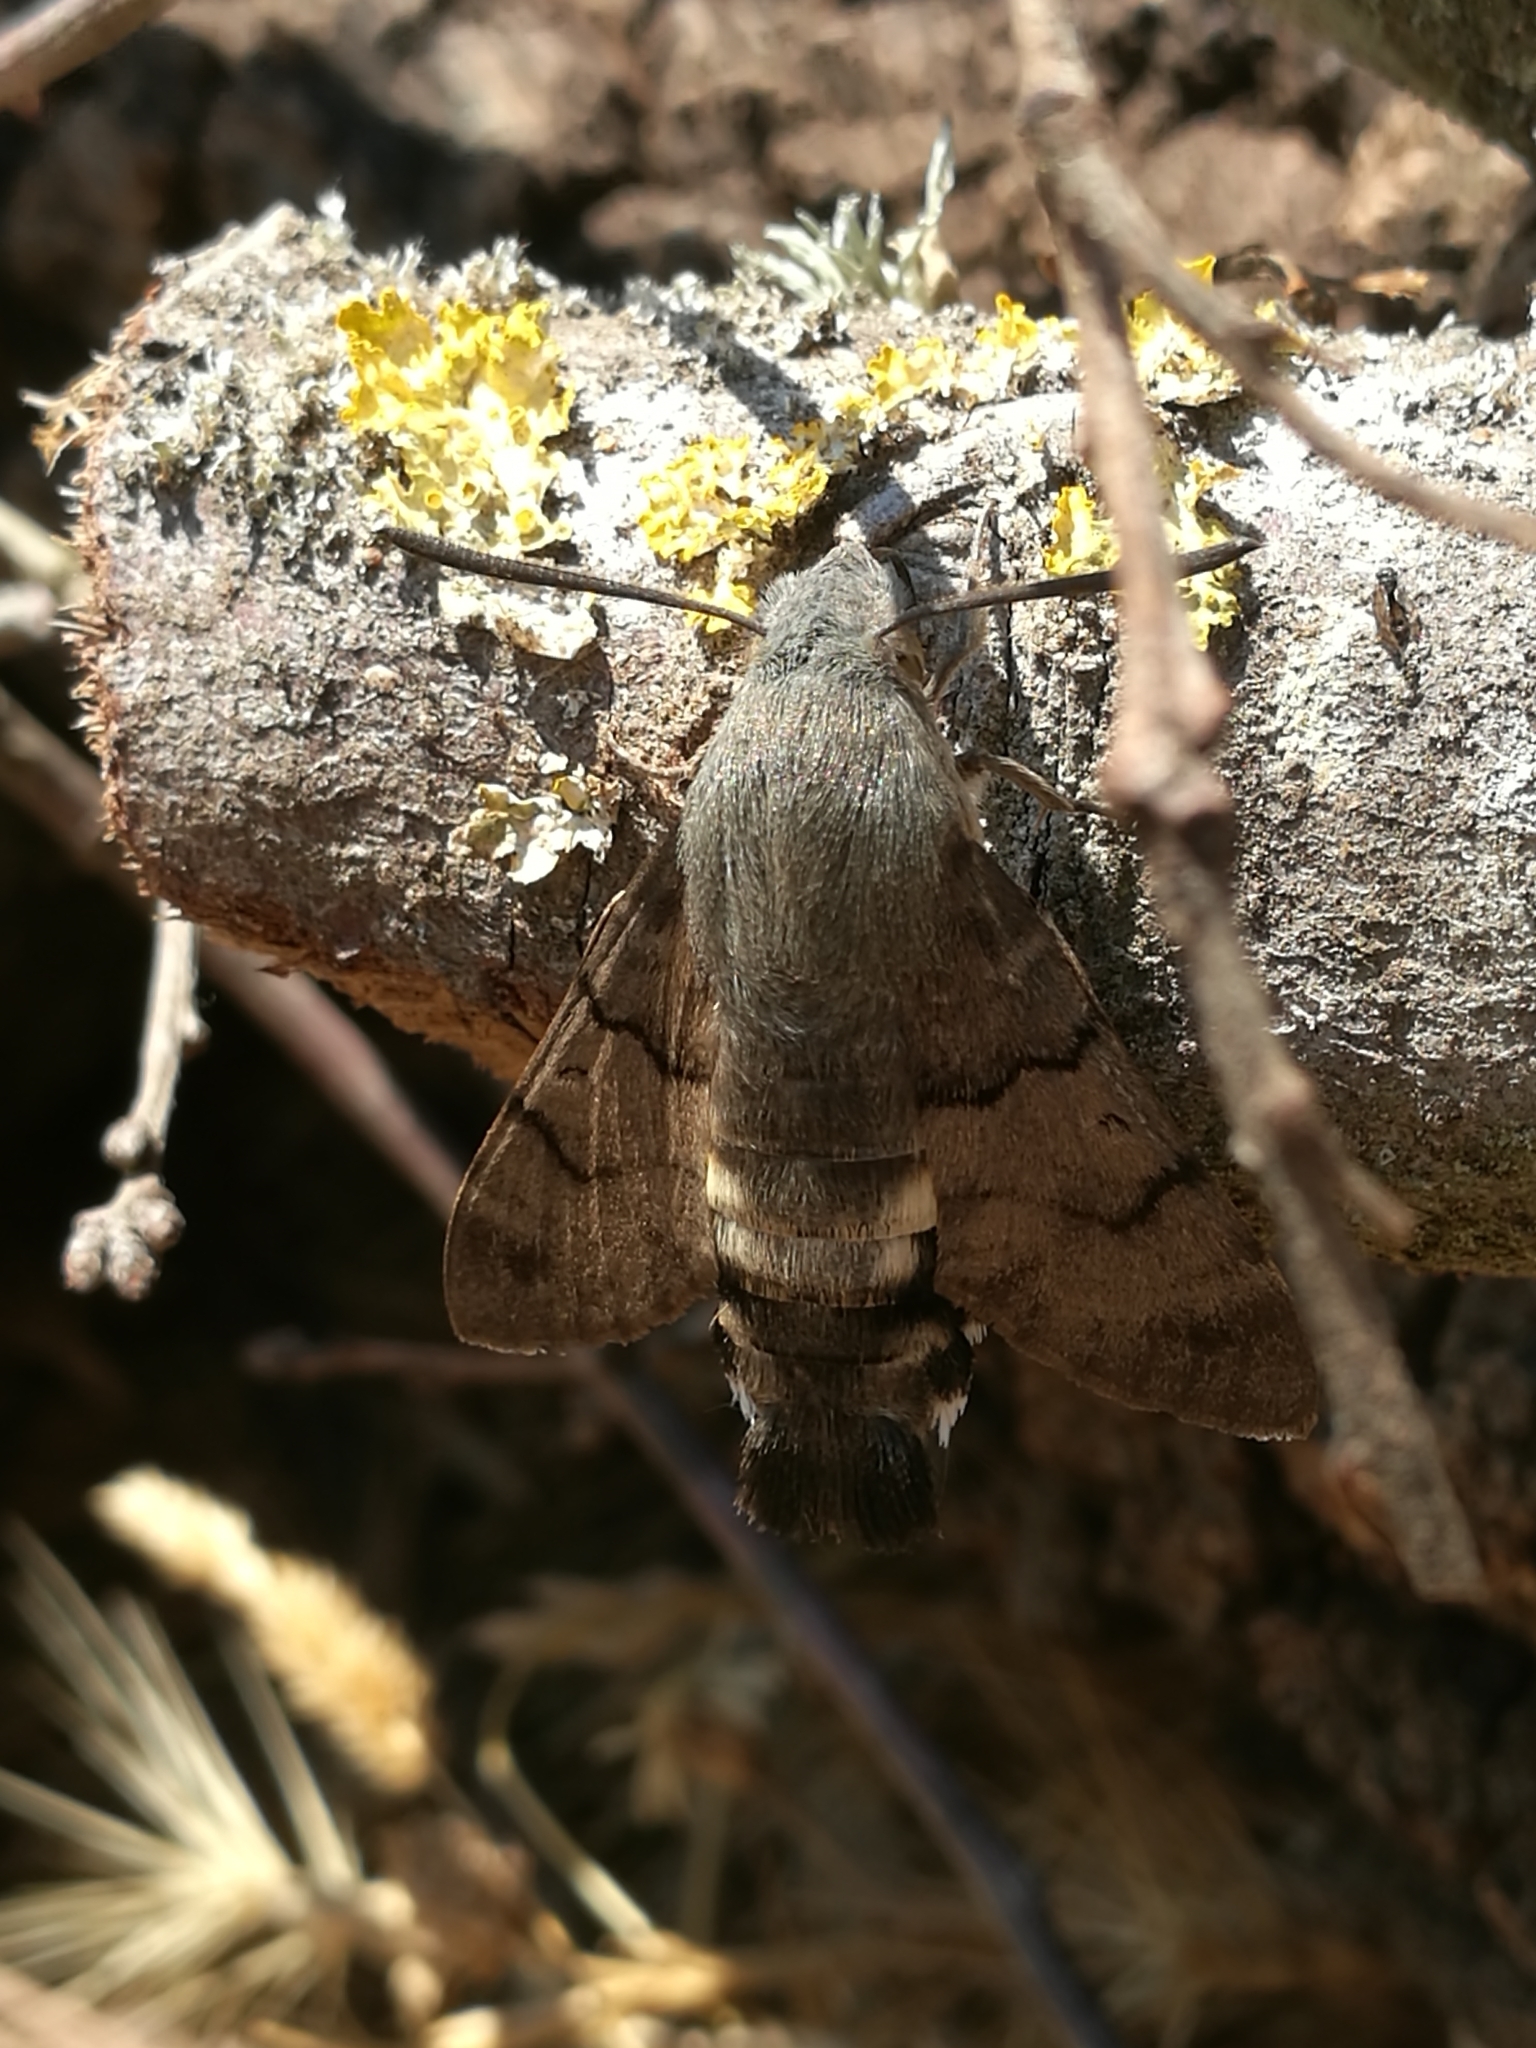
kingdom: Animalia
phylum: Arthropoda
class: Insecta
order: Lepidoptera
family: Sphingidae
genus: Macroglossum
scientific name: Macroglossum stellatarum
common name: Humming-bird hawk-moth
